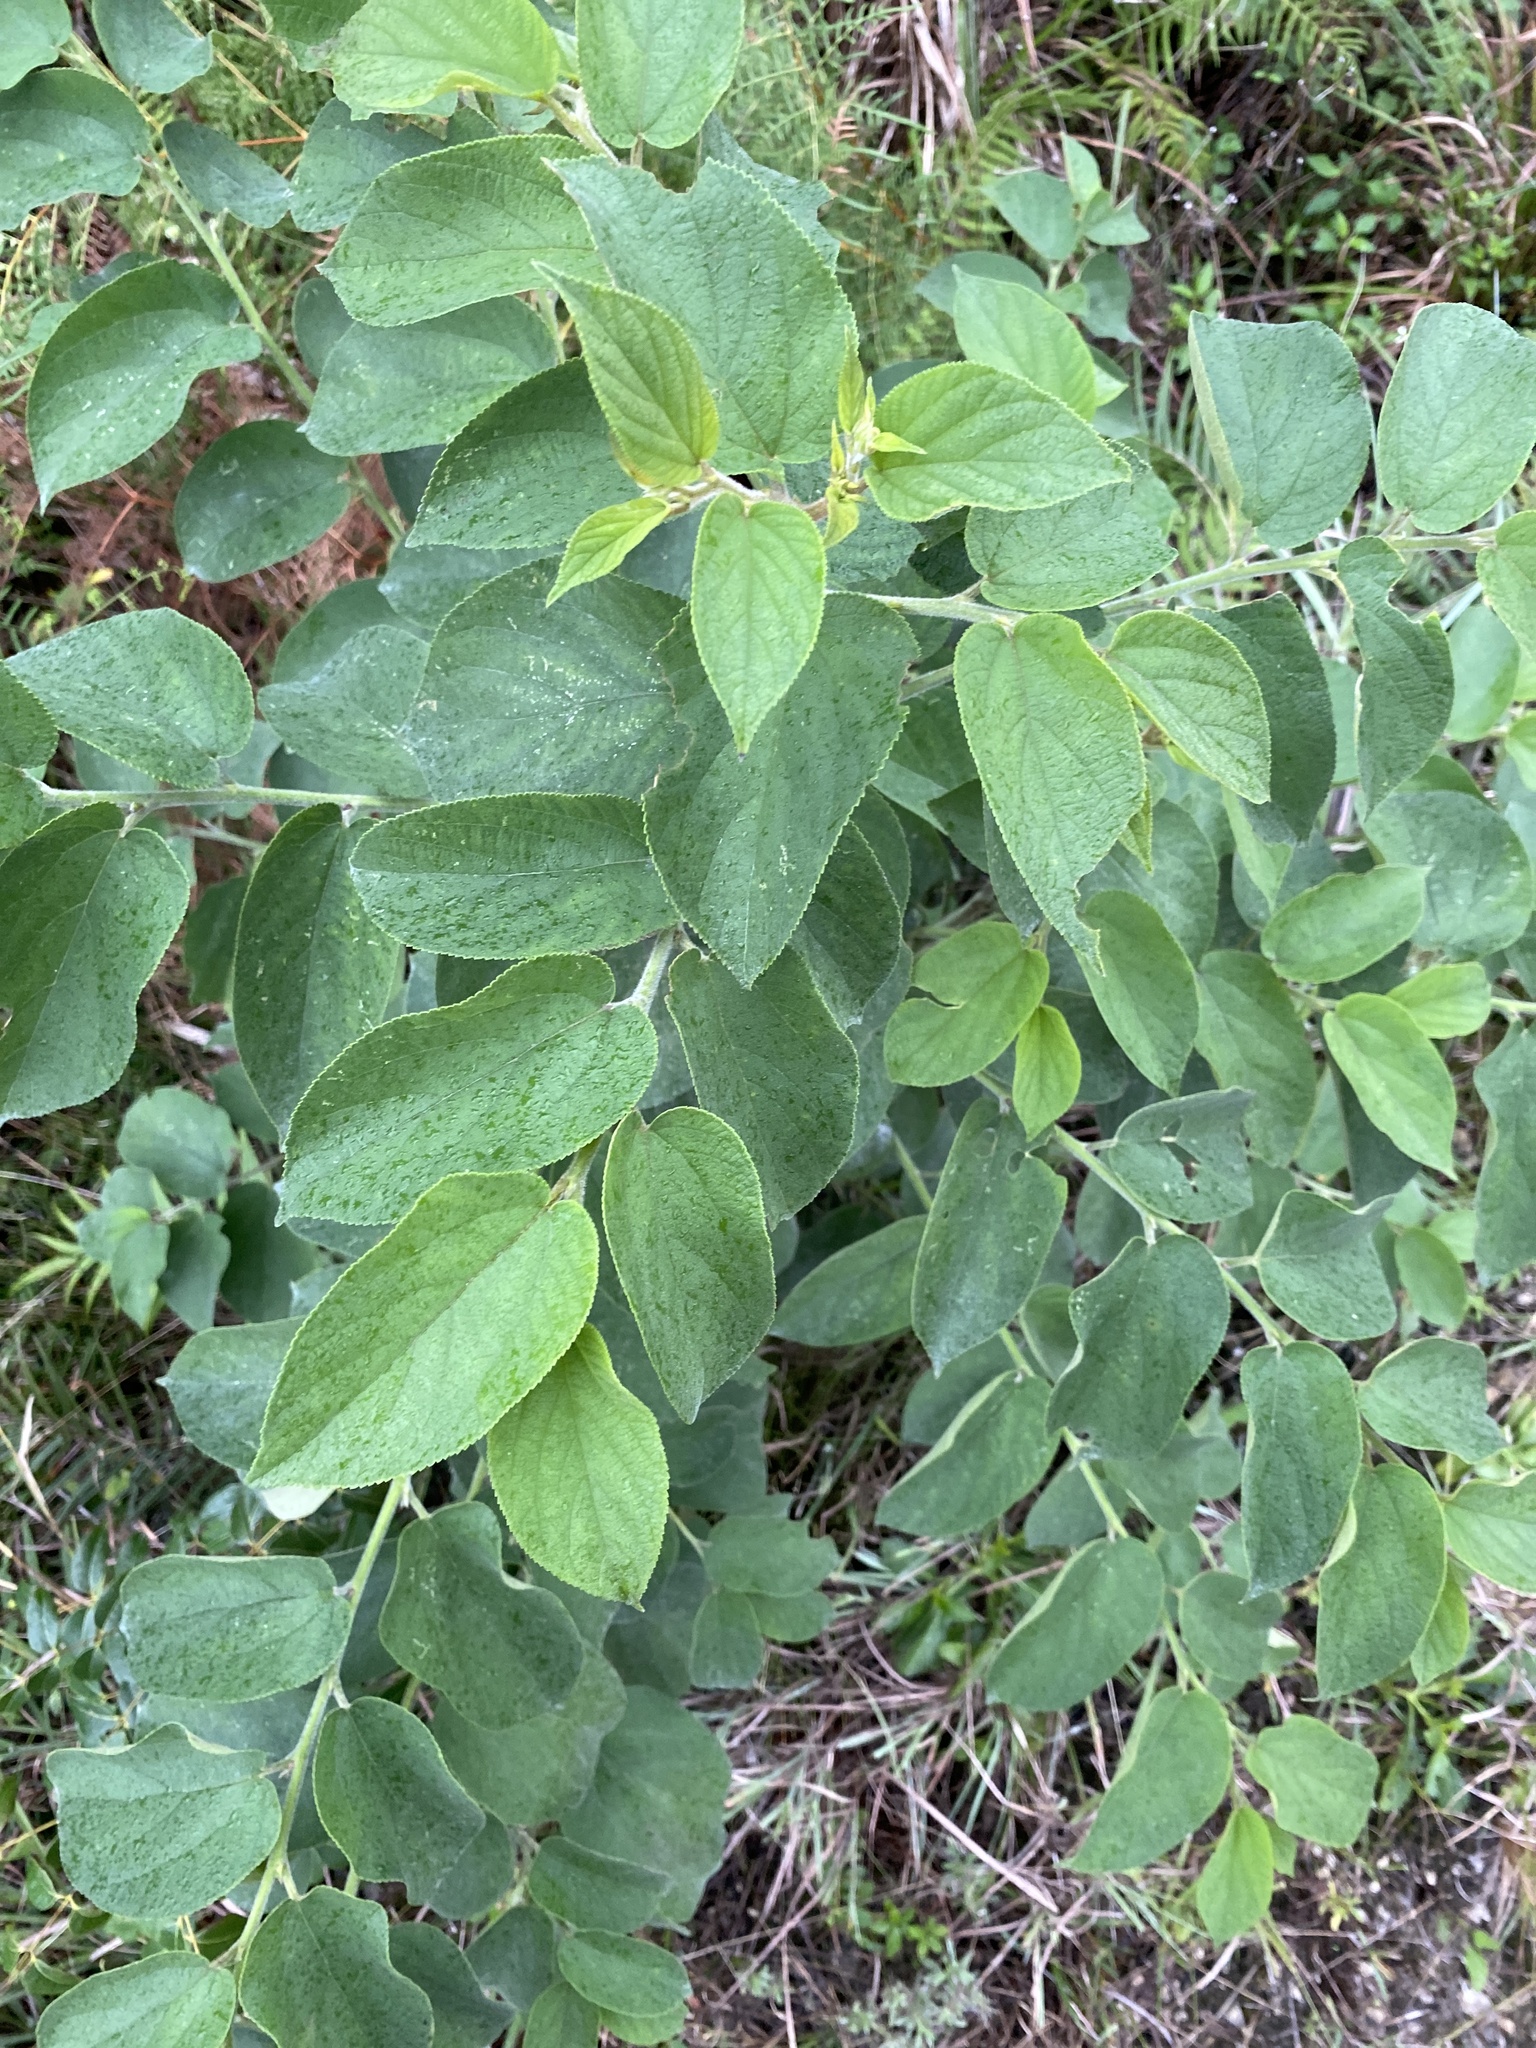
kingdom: Plantae
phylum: Tracheophyta
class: Magnoliopsida
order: Rosales
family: Cannabaceae
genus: Trema
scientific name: Trema micranthum
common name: Jamaican nettletree
